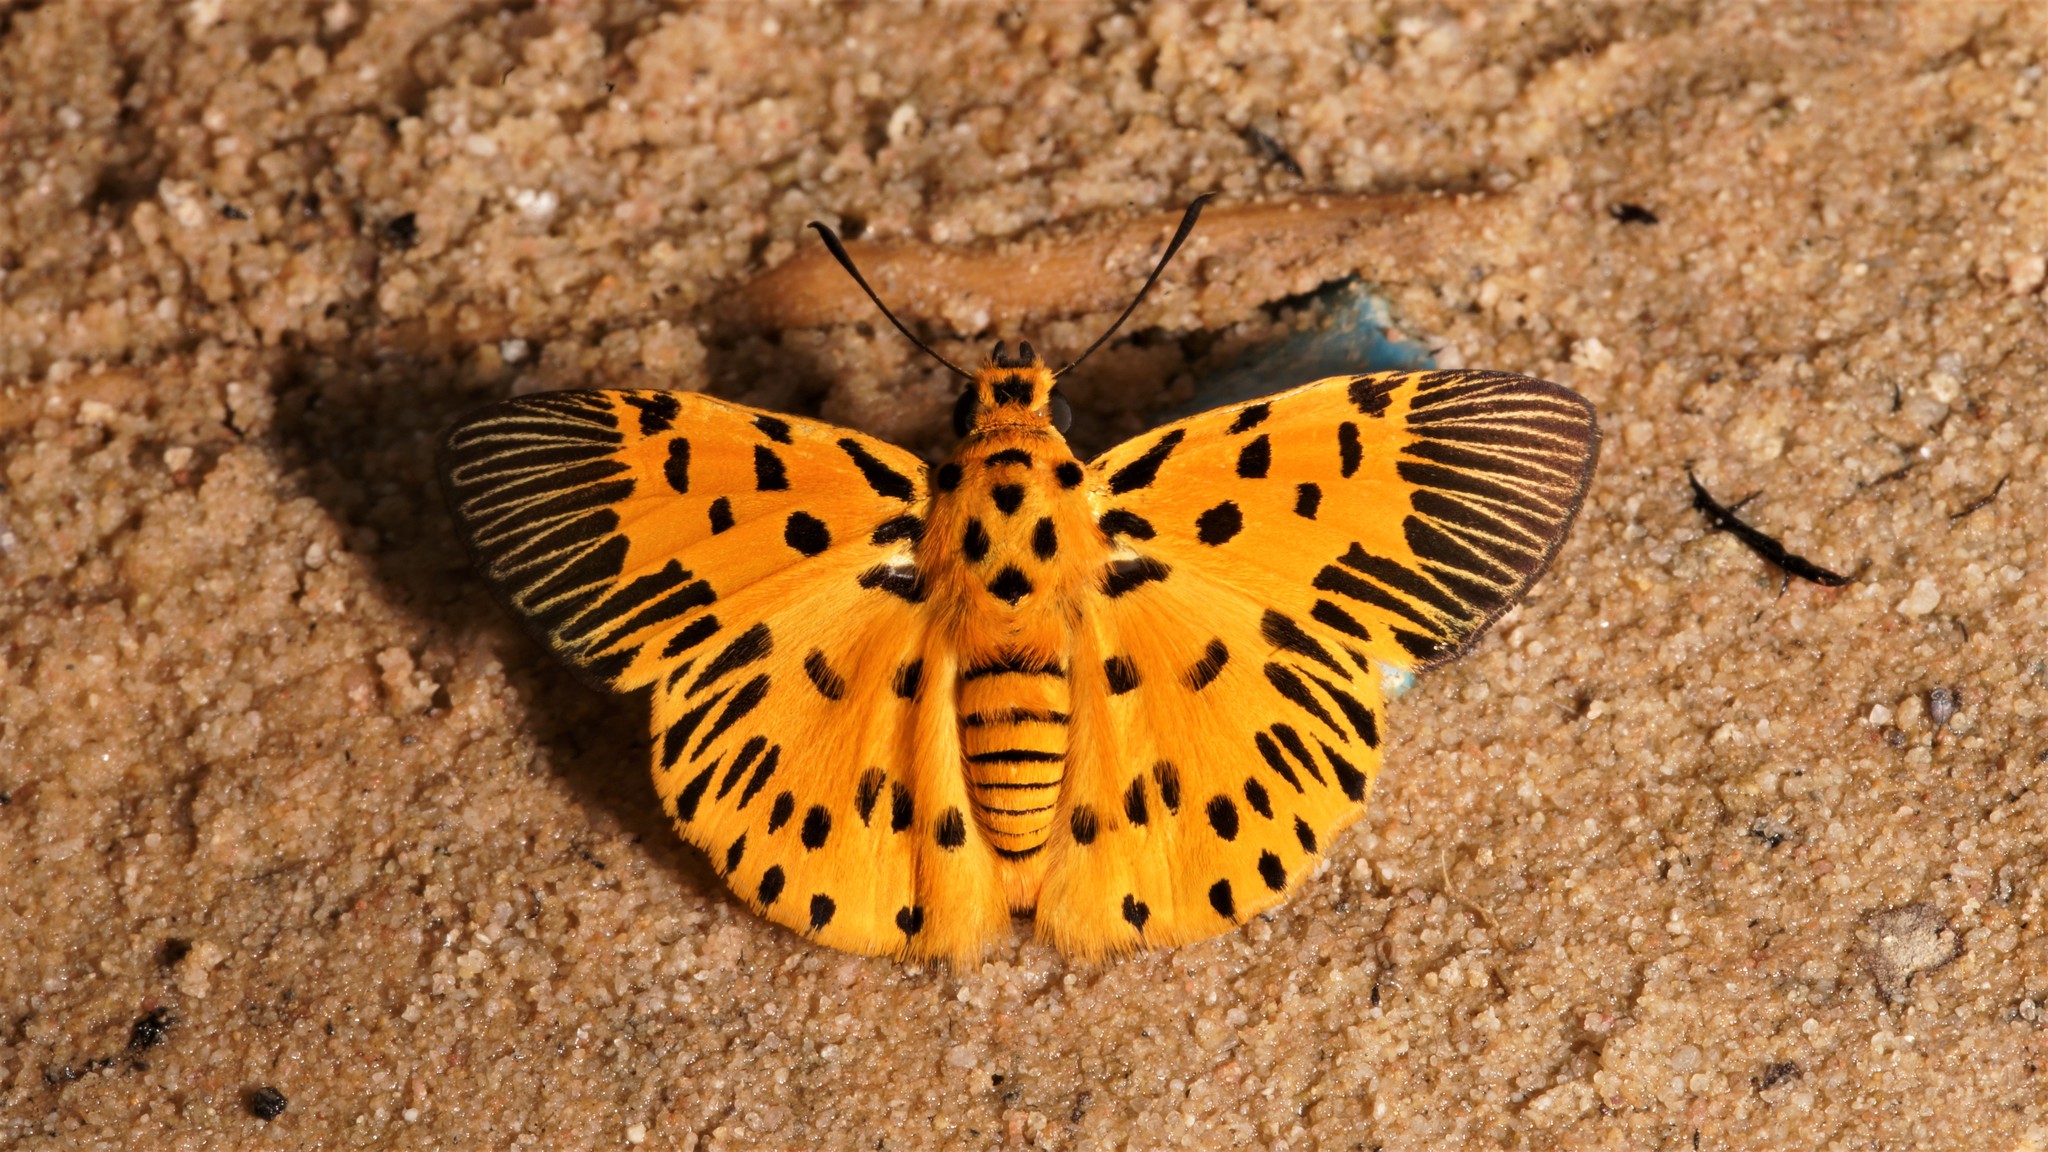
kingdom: Animalia
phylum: Arthropoda
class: Insecta
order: Lepidoptera
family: Hesperiidae
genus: Odina
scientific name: Odina decoratus
